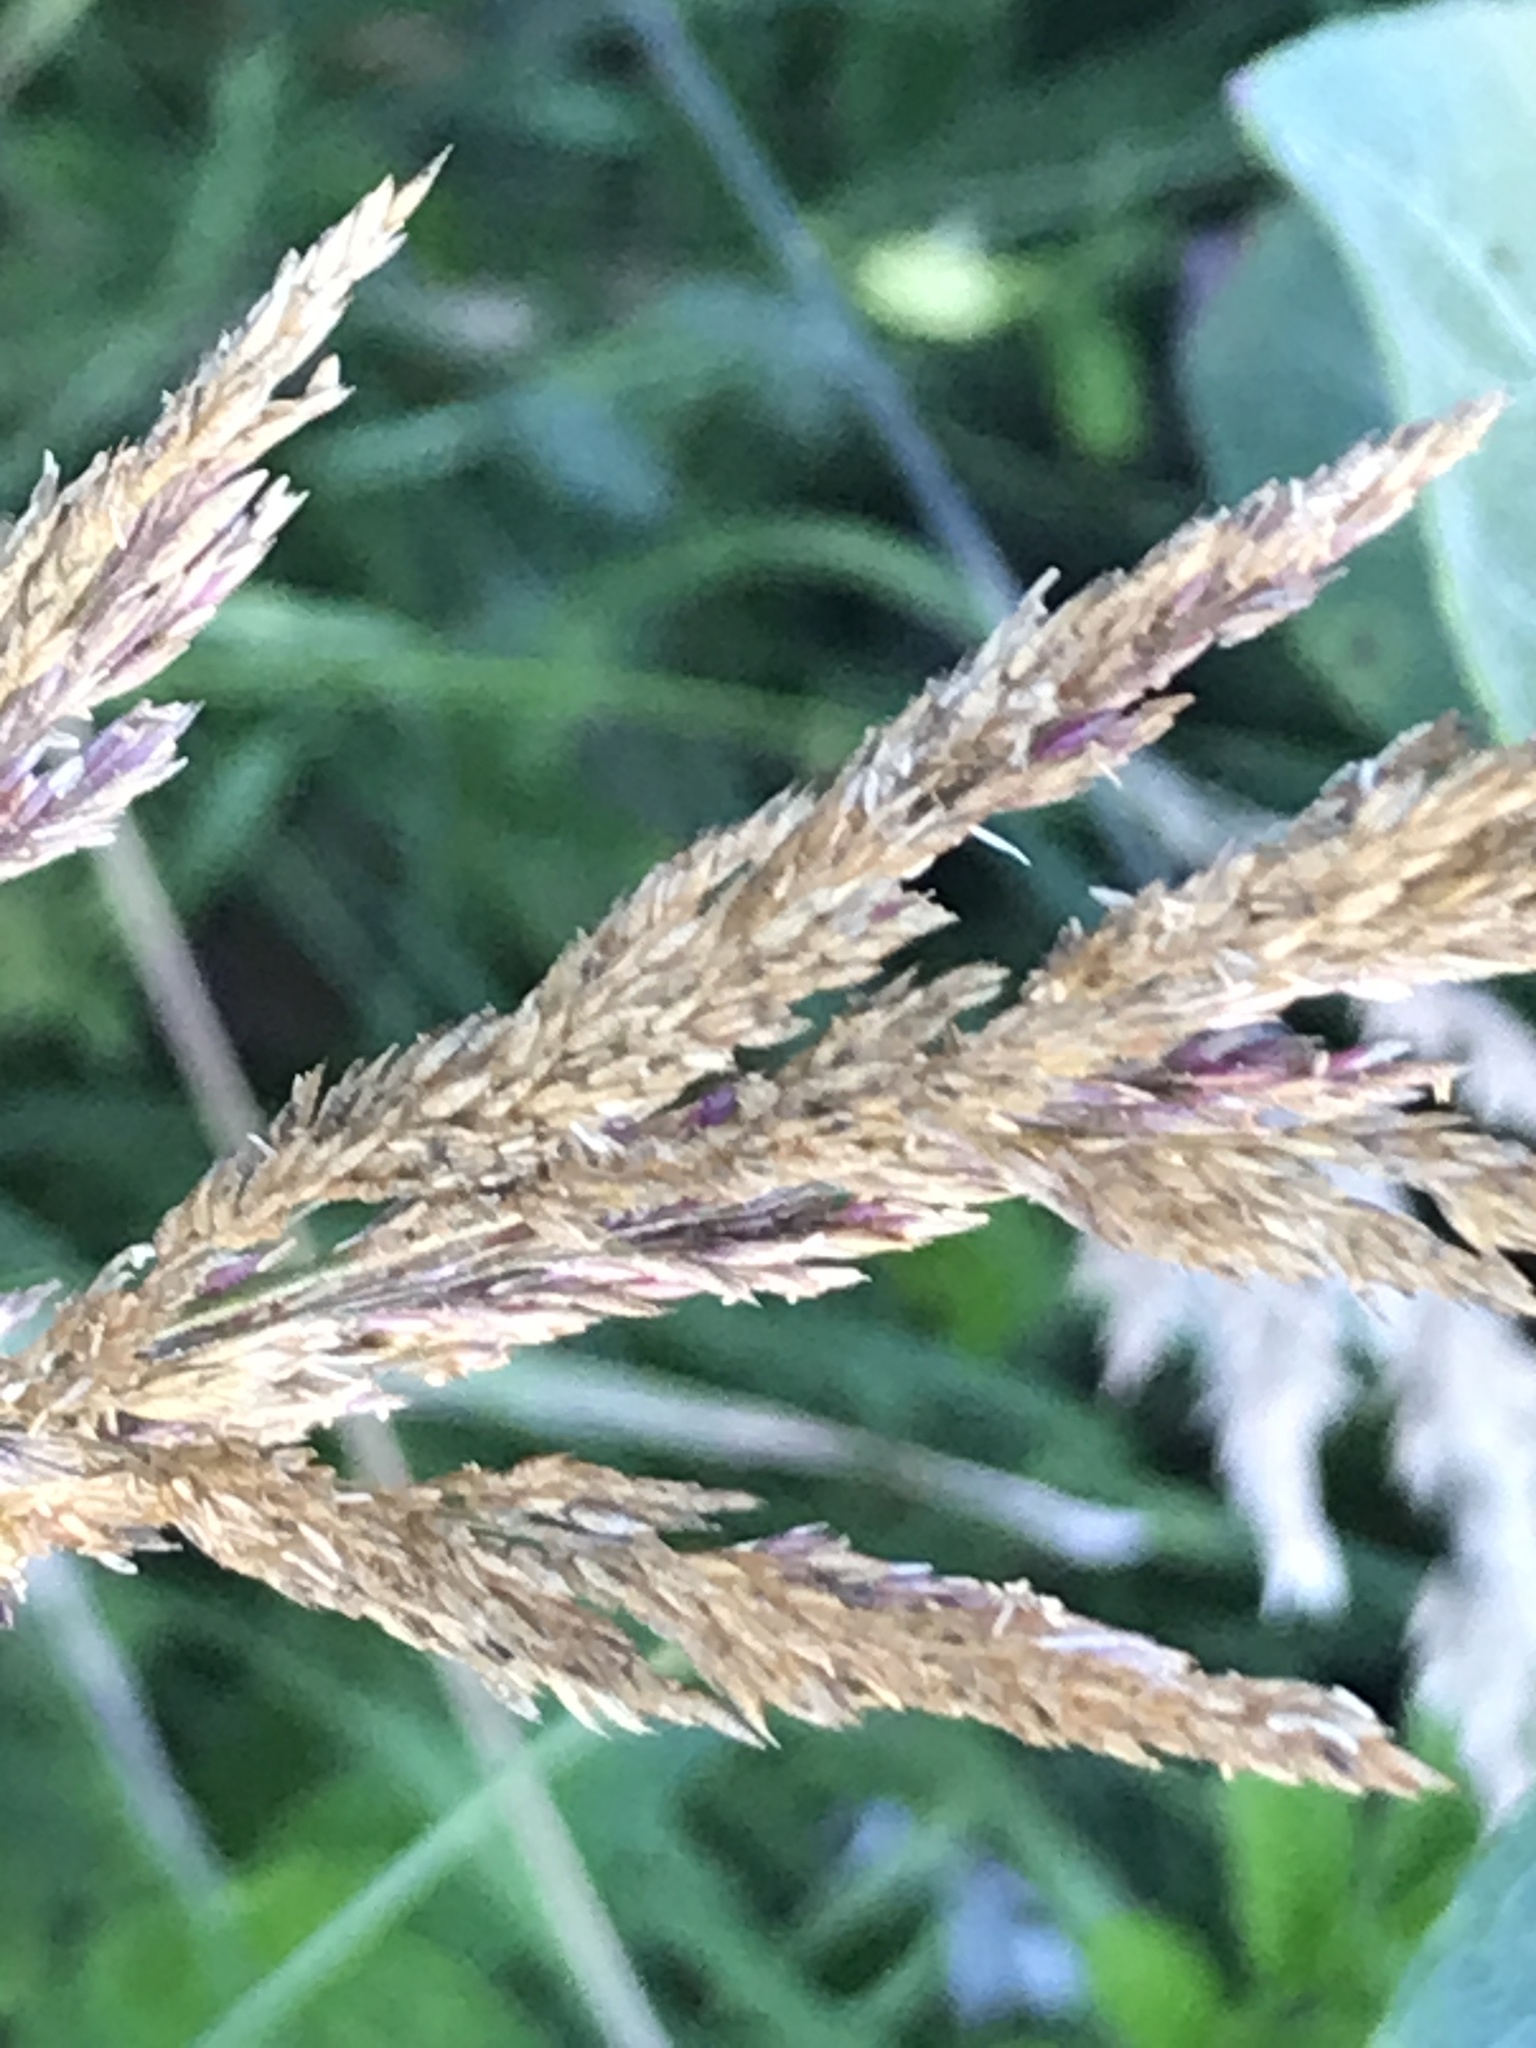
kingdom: Plantae
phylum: Tracheophyta
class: Liliopsida
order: Poales
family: Poaceae
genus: Calamagrostis
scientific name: Calamagrostis nutkaensis
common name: Pacific reed grass
